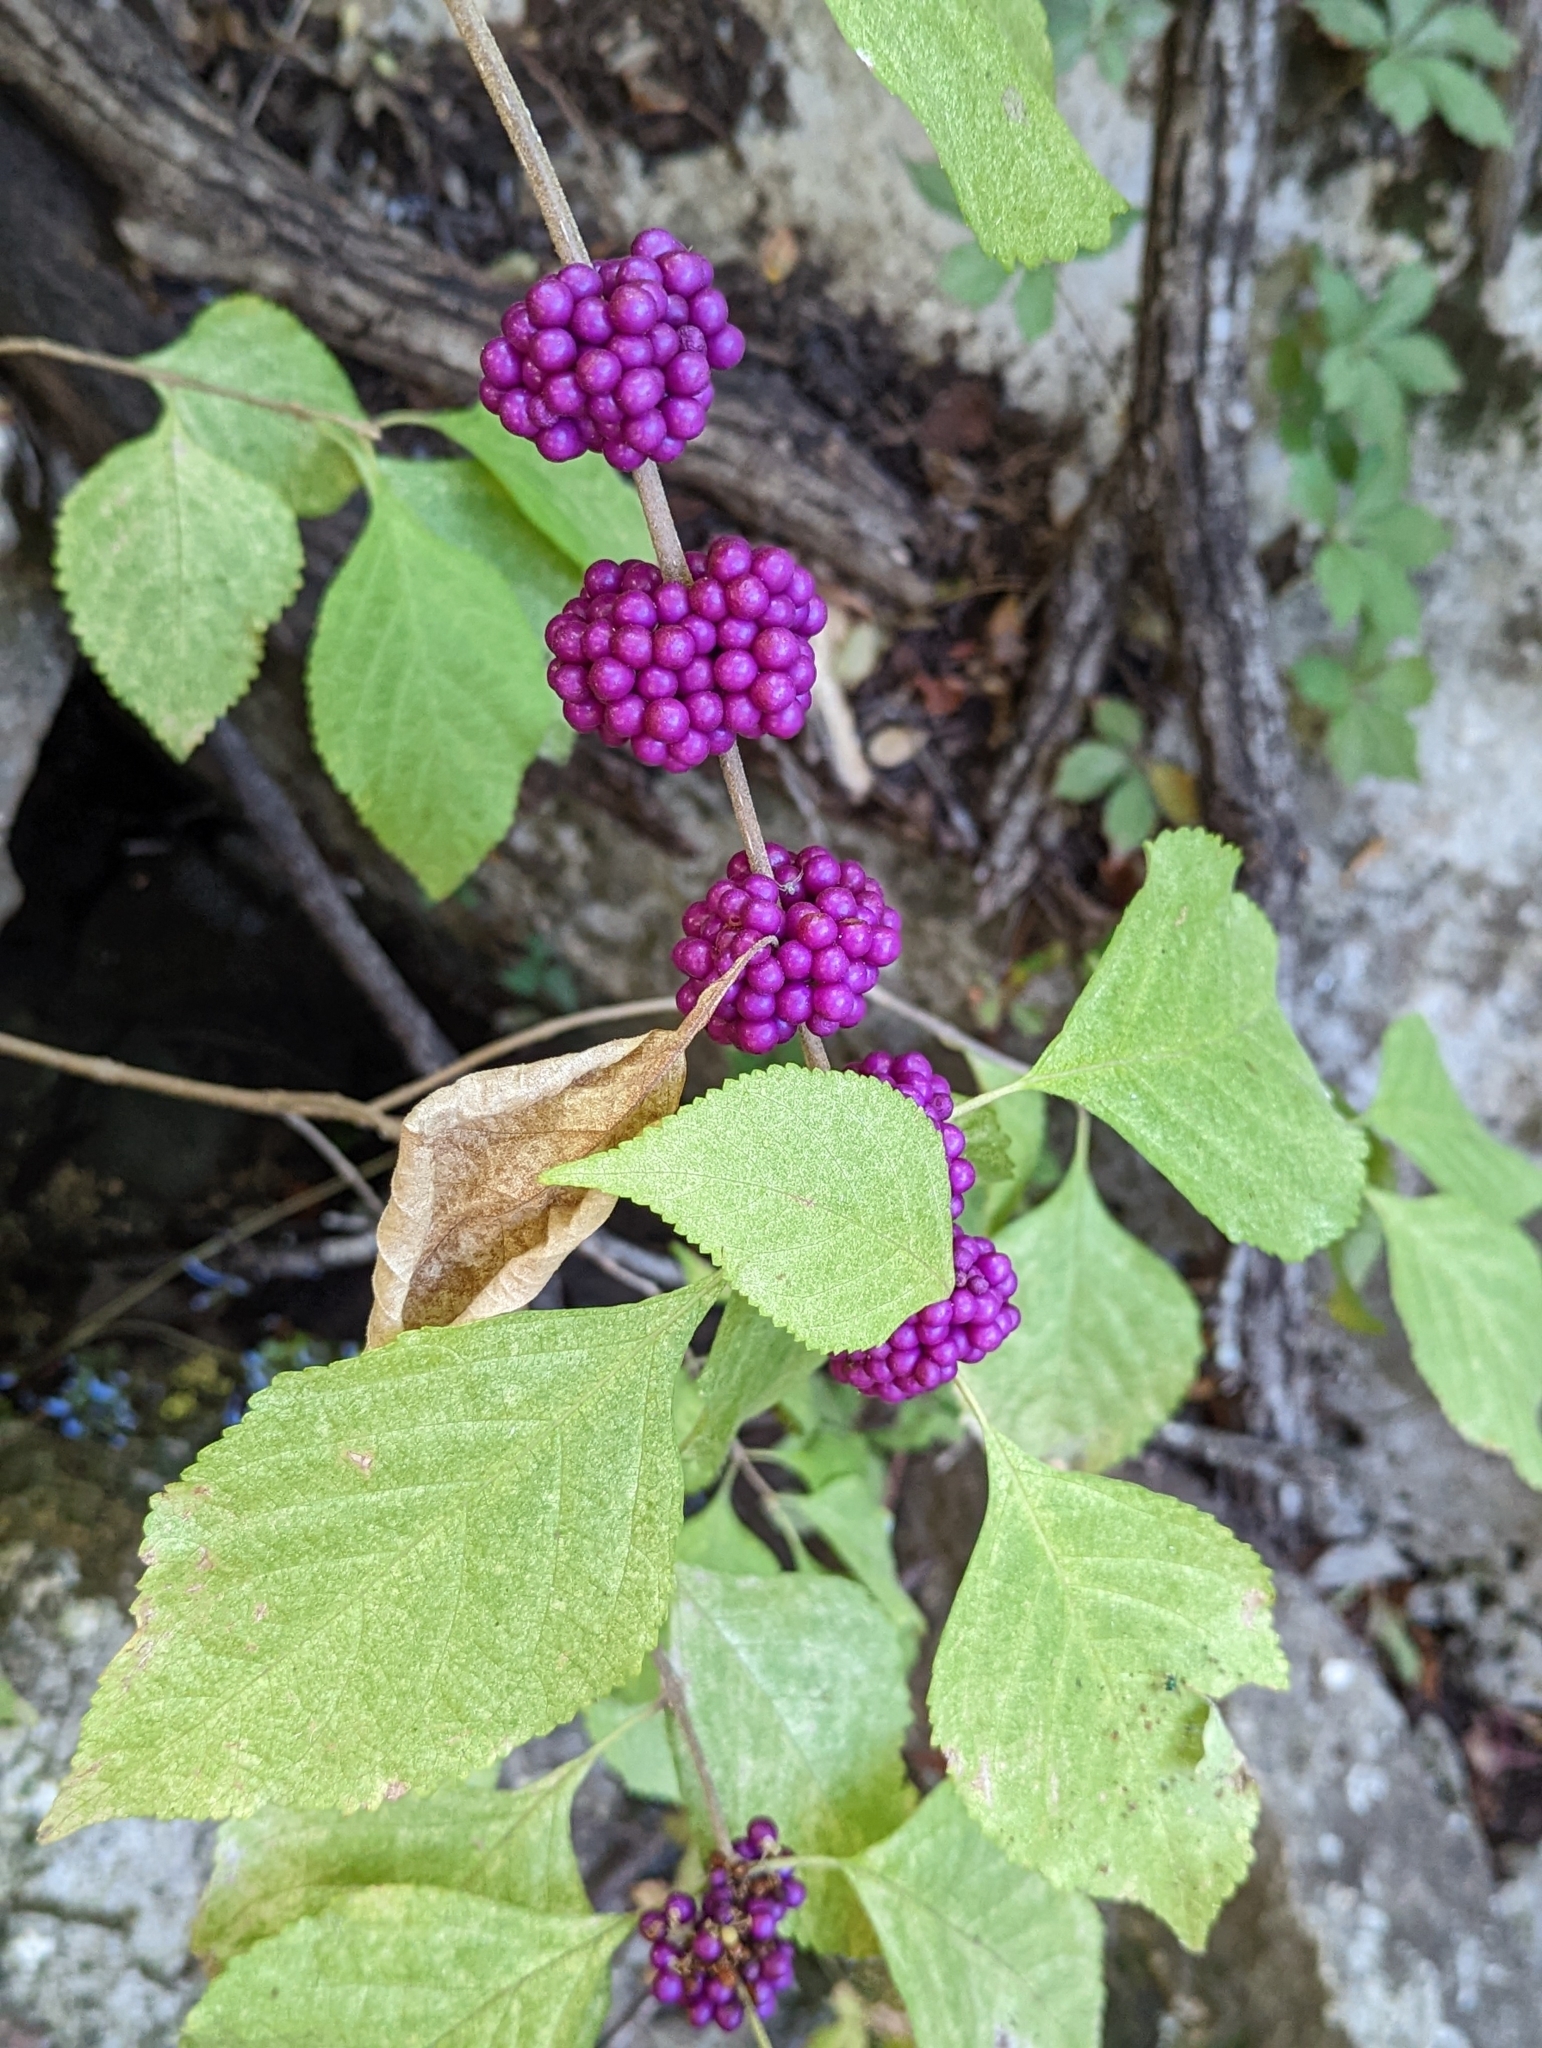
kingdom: Plantae
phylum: Tracheophyta
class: Magnoliopsida
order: Lamiales
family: Lamiaceae
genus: Callicarpa
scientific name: Callicarpa americana
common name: American beautyberry
